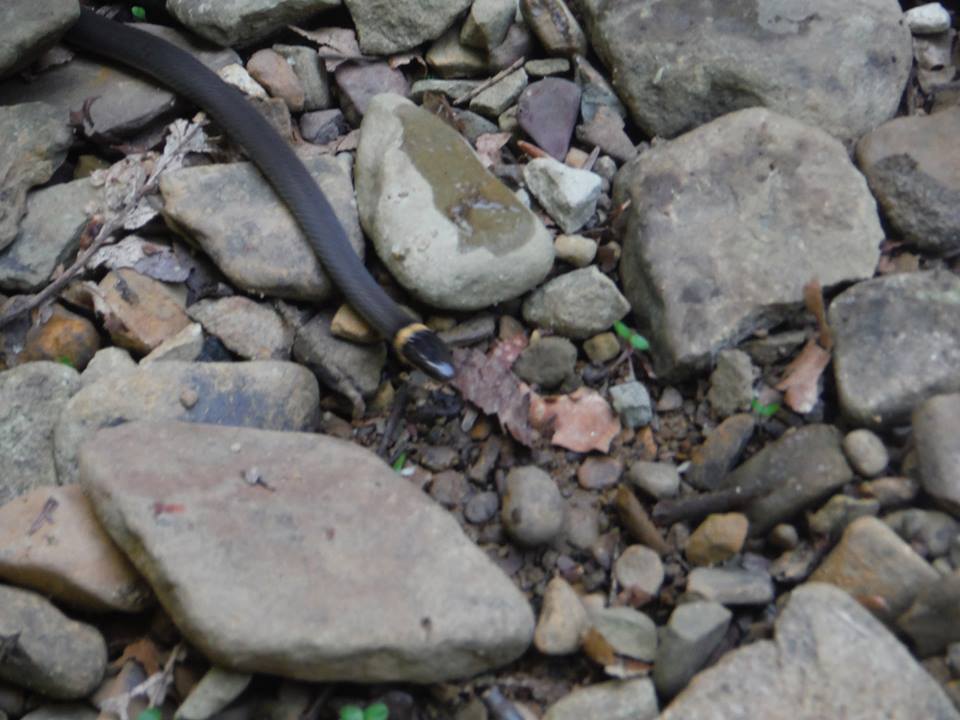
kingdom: Animalia
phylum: Chordata
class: Squamata
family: Colubridae
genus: Diadophis
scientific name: Diadophis punctatus
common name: Ringneck snake
